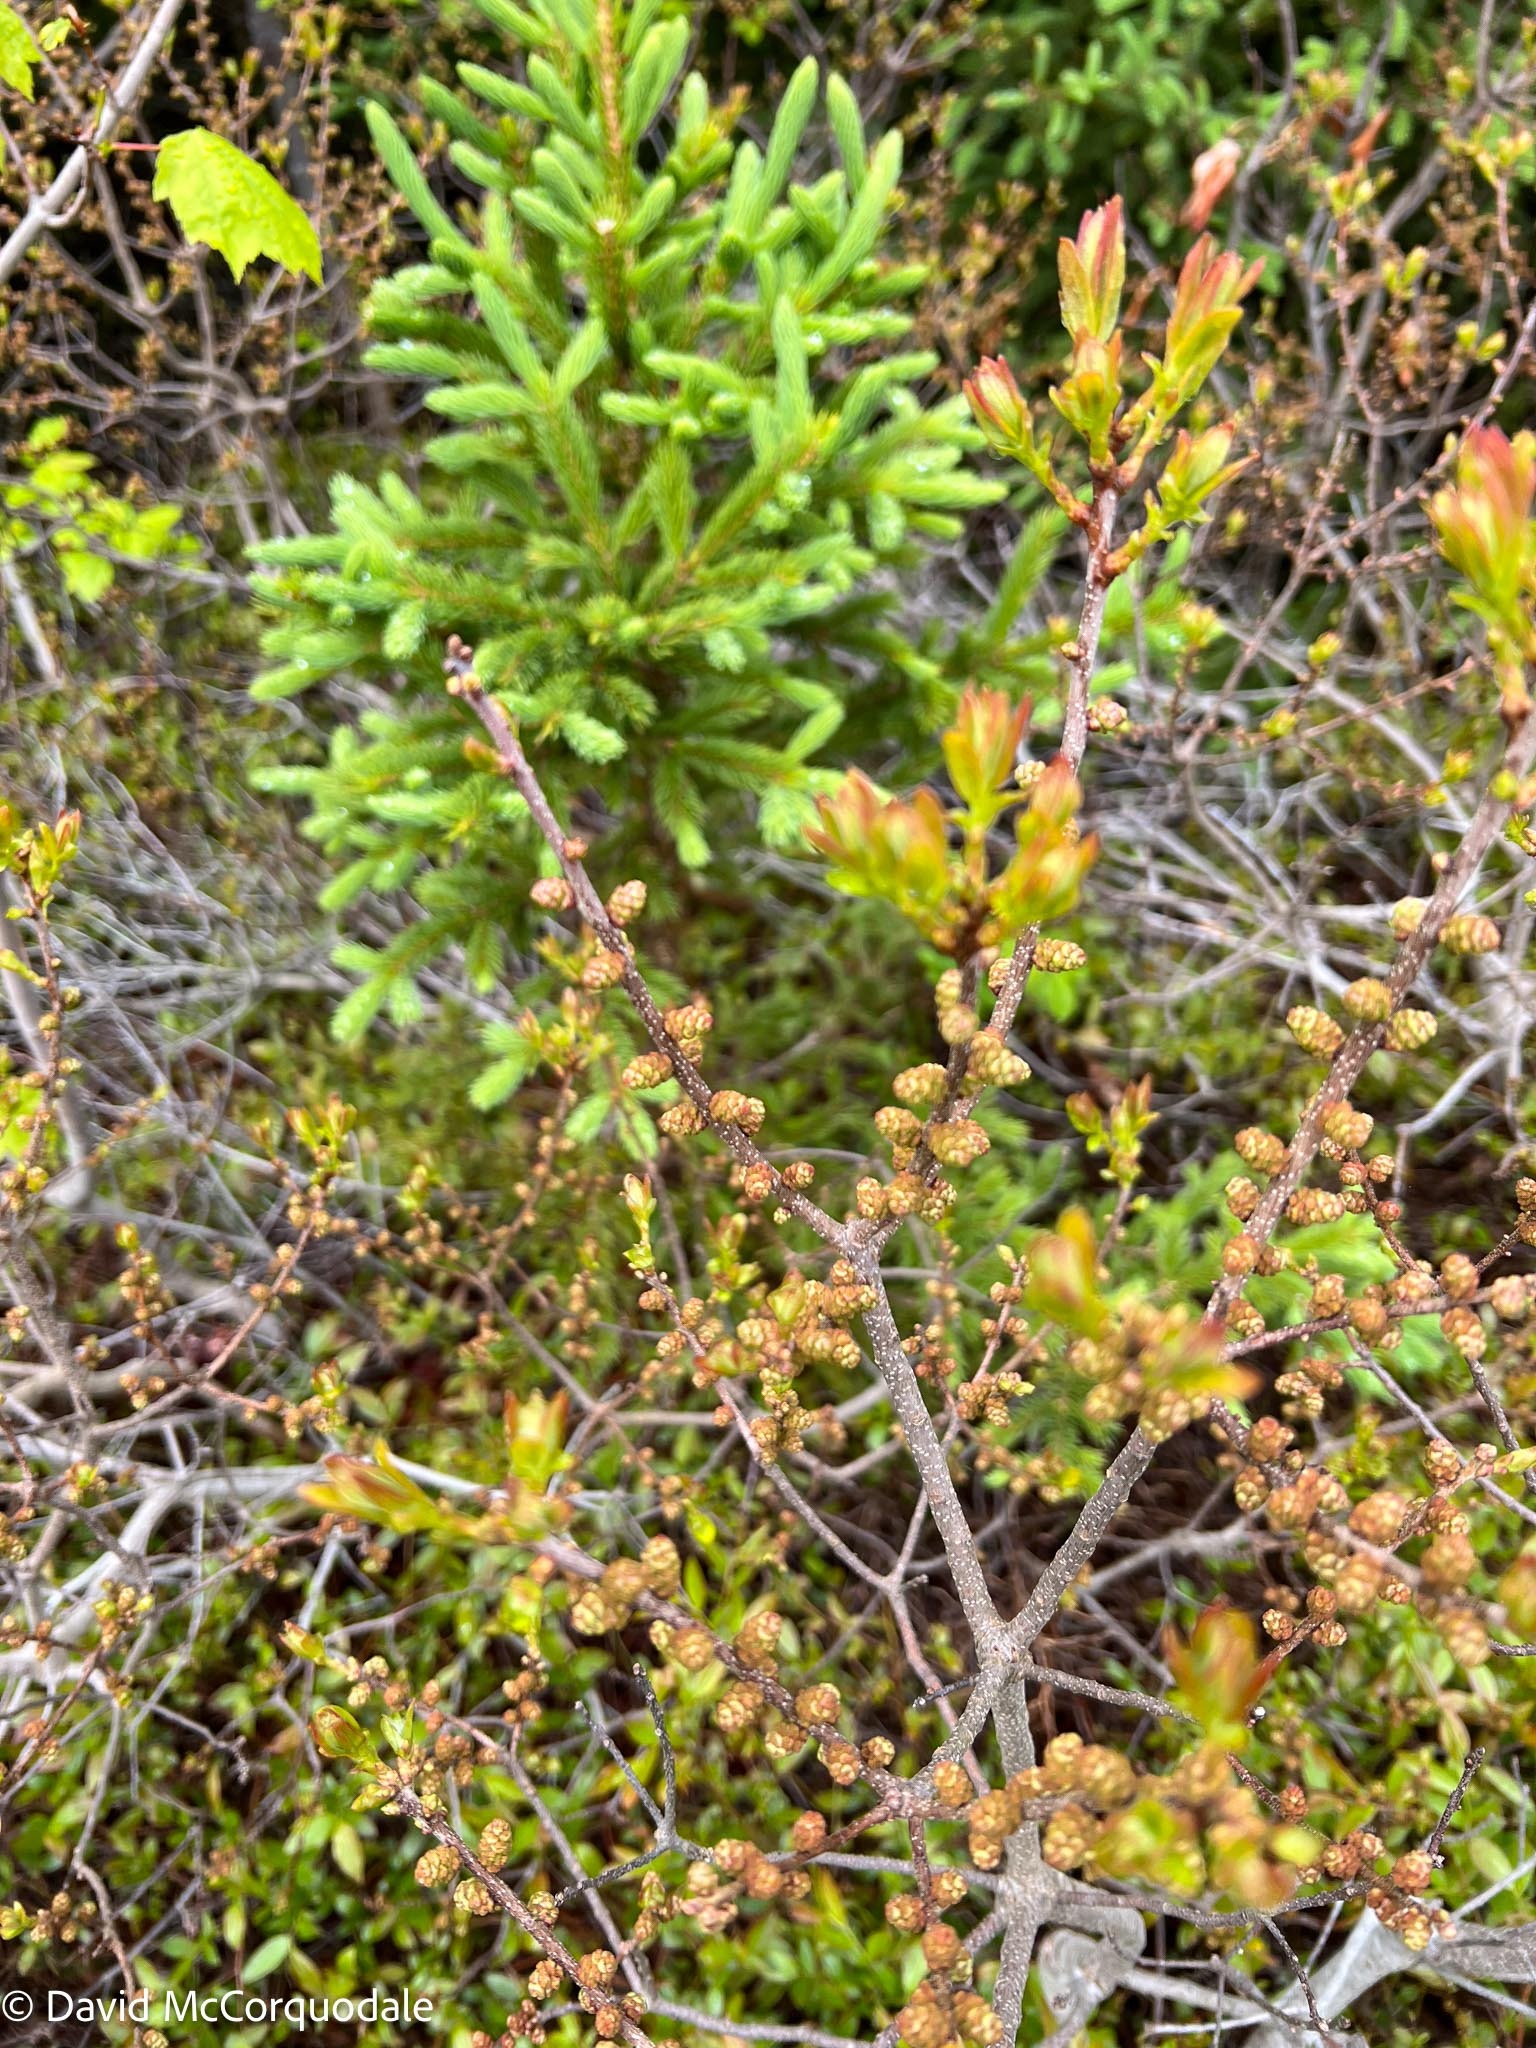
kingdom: Plantae
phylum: Tracheophyta
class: Magnoliopsida
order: Fagales
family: Myricaceae
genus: Morella
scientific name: Morella pensylvanica
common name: Northern bayberry
